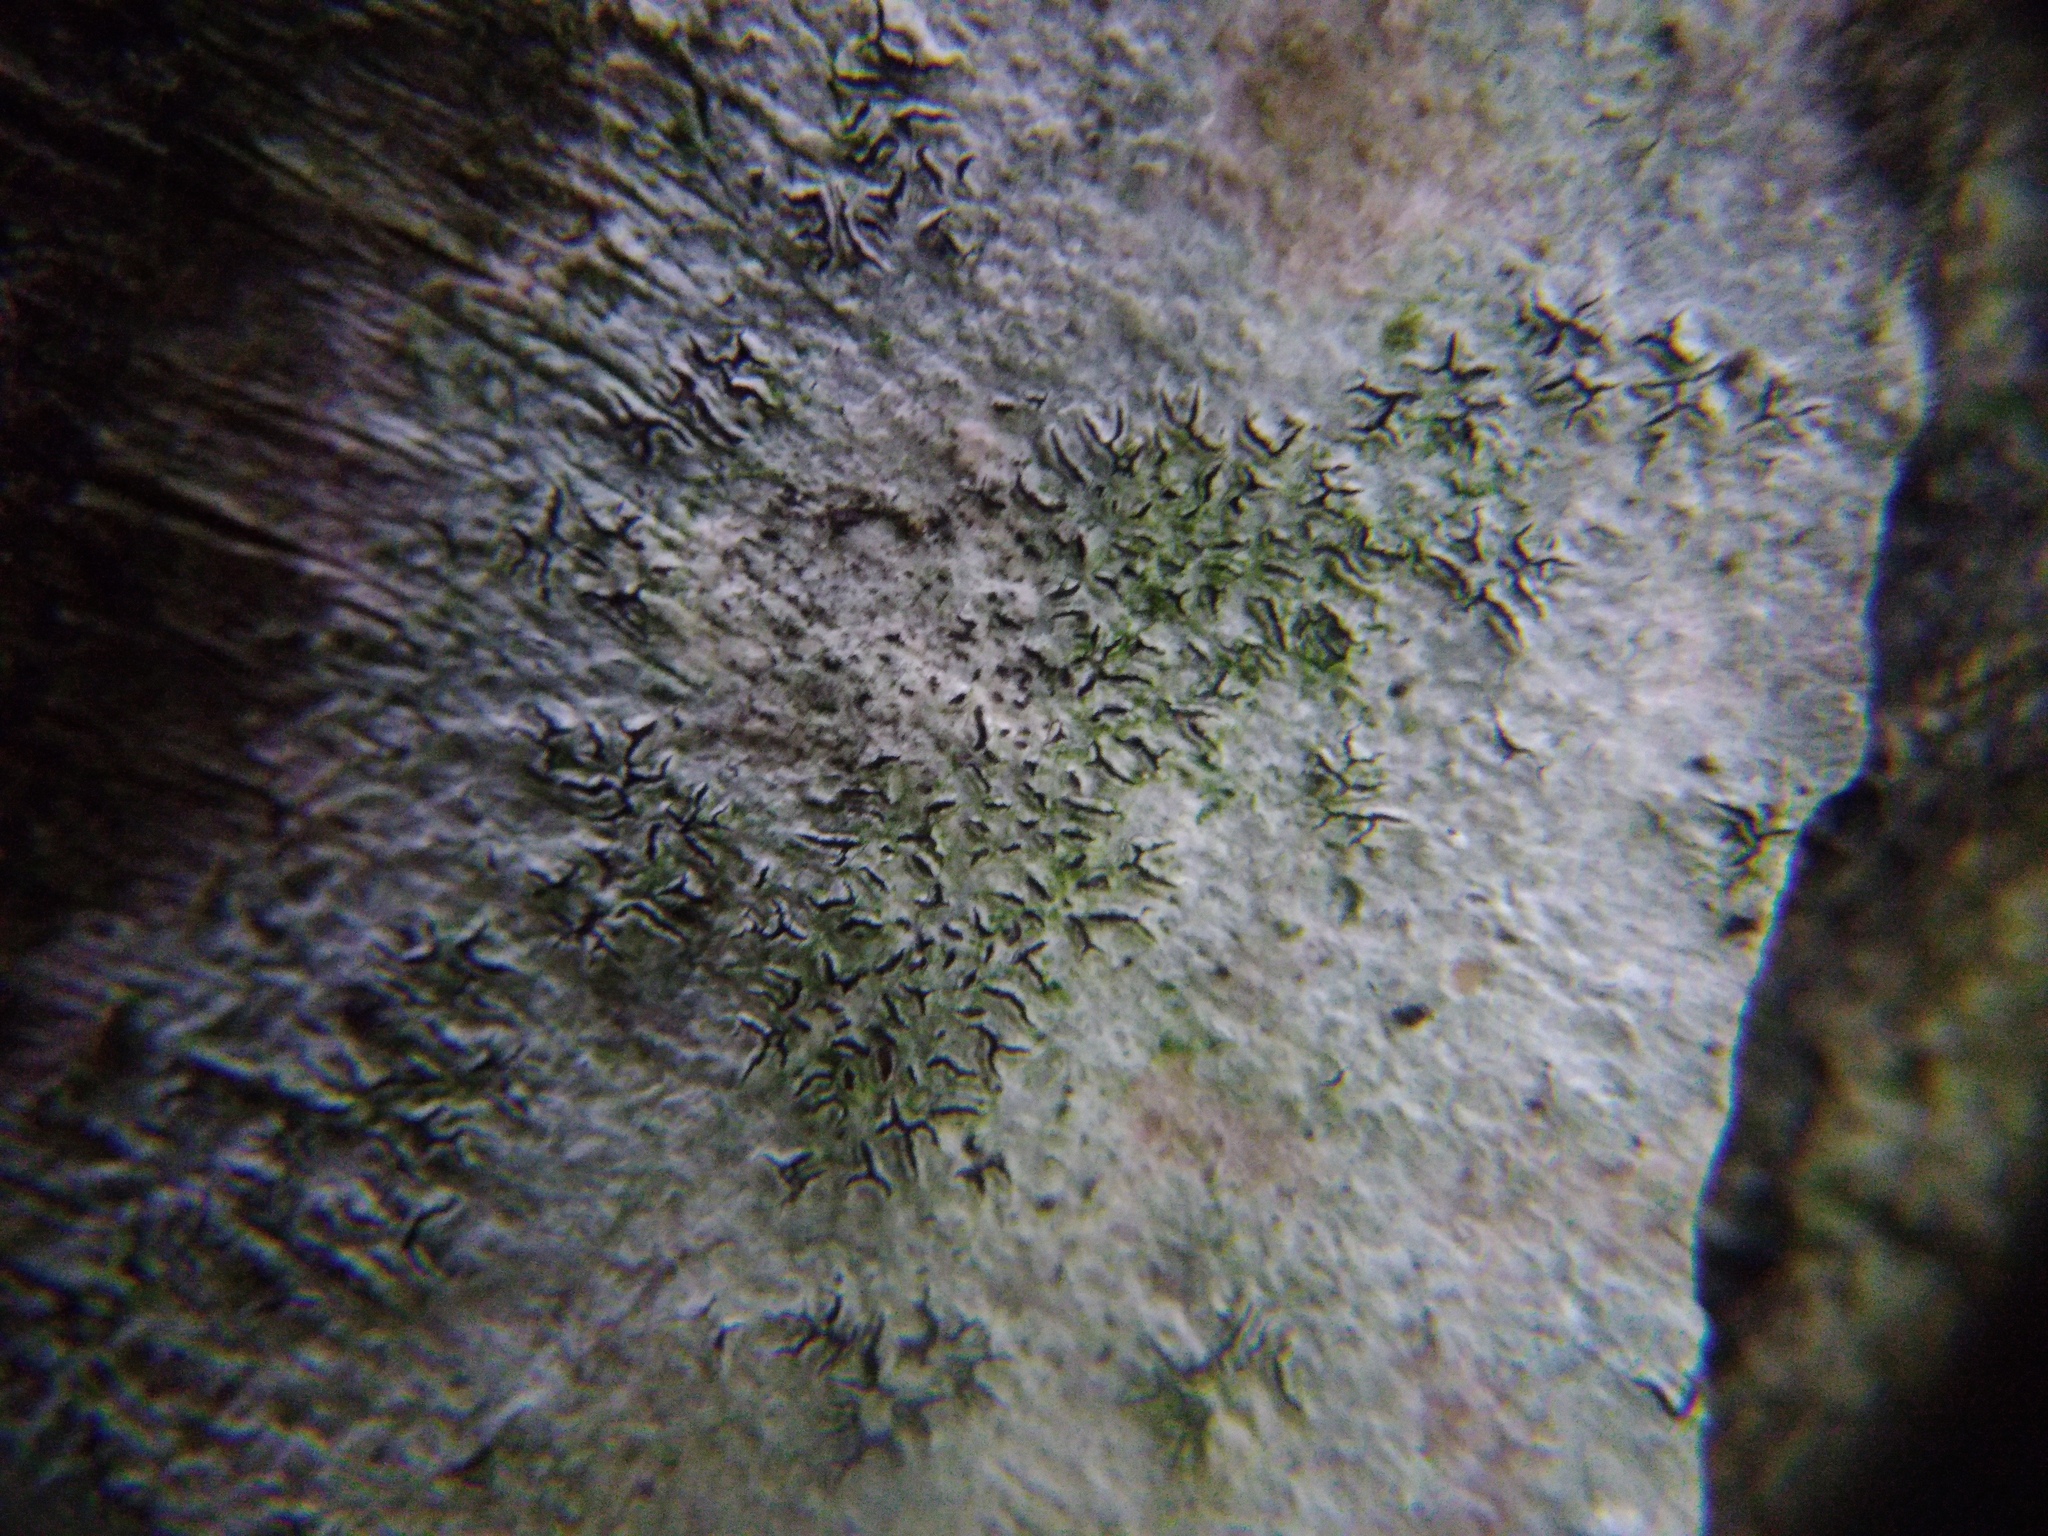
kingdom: Fungi
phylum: Ascomycota
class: Lecanoromycetes
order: Ostropales
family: Graphidaceae
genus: Graphis
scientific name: Graphis scripta
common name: Script lichen
